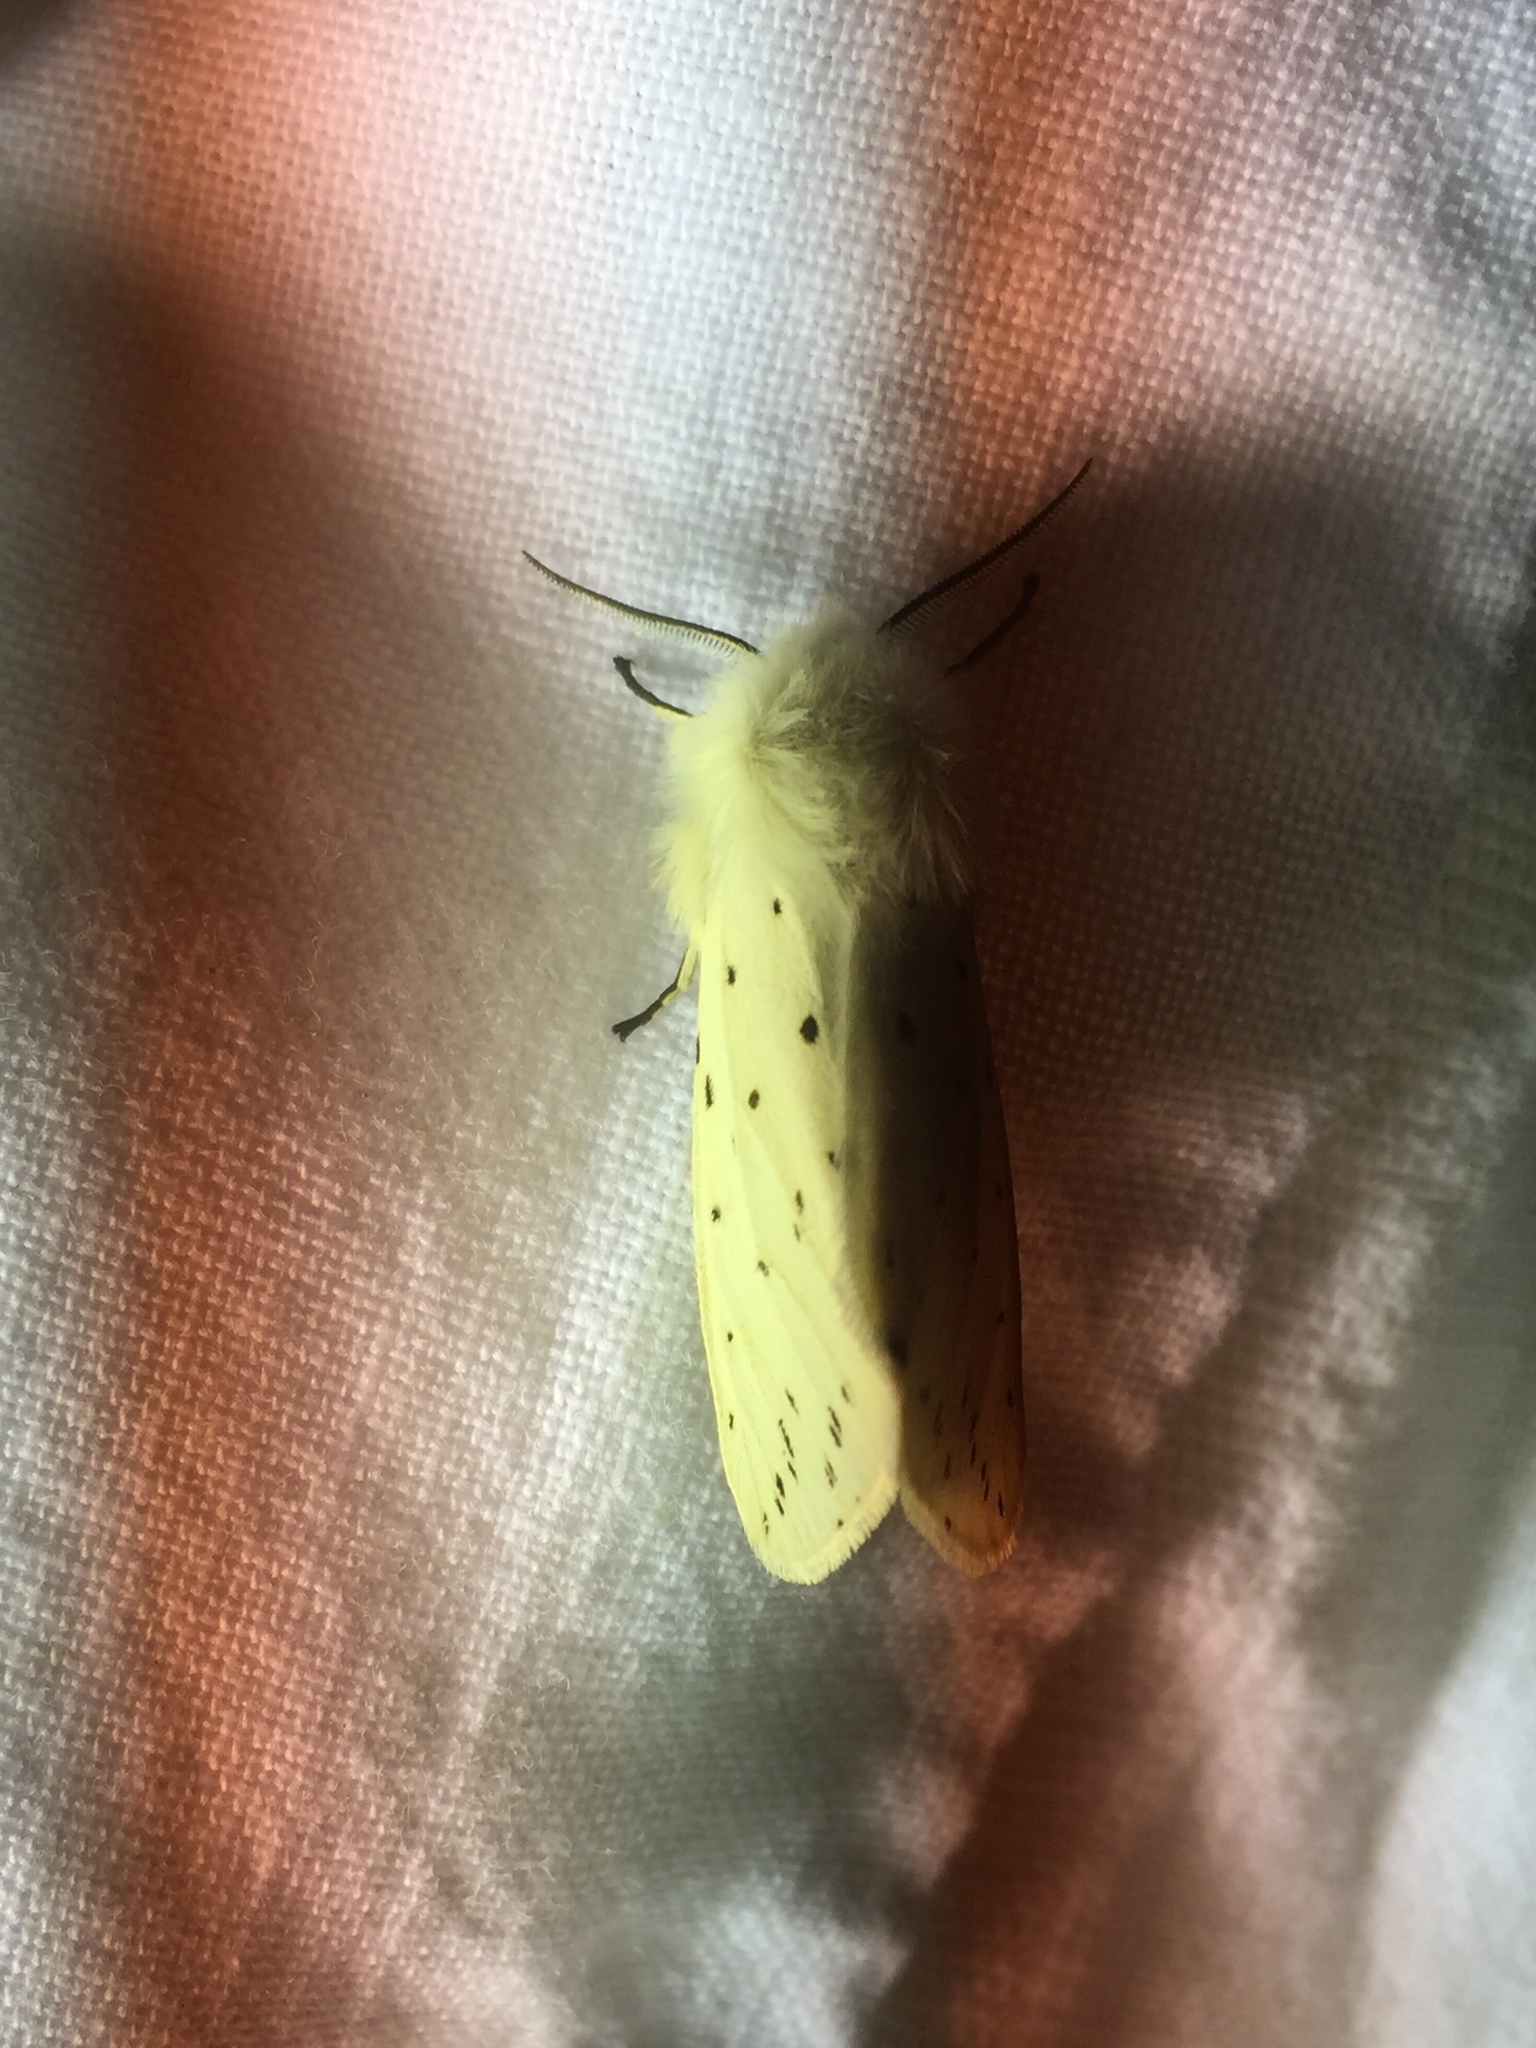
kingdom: Animalia
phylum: Arthropoda
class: Insecta
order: Lepidoptera
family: Erebidae
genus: Spilosoma
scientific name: Spilosoma lubricipeda
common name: White ermine
